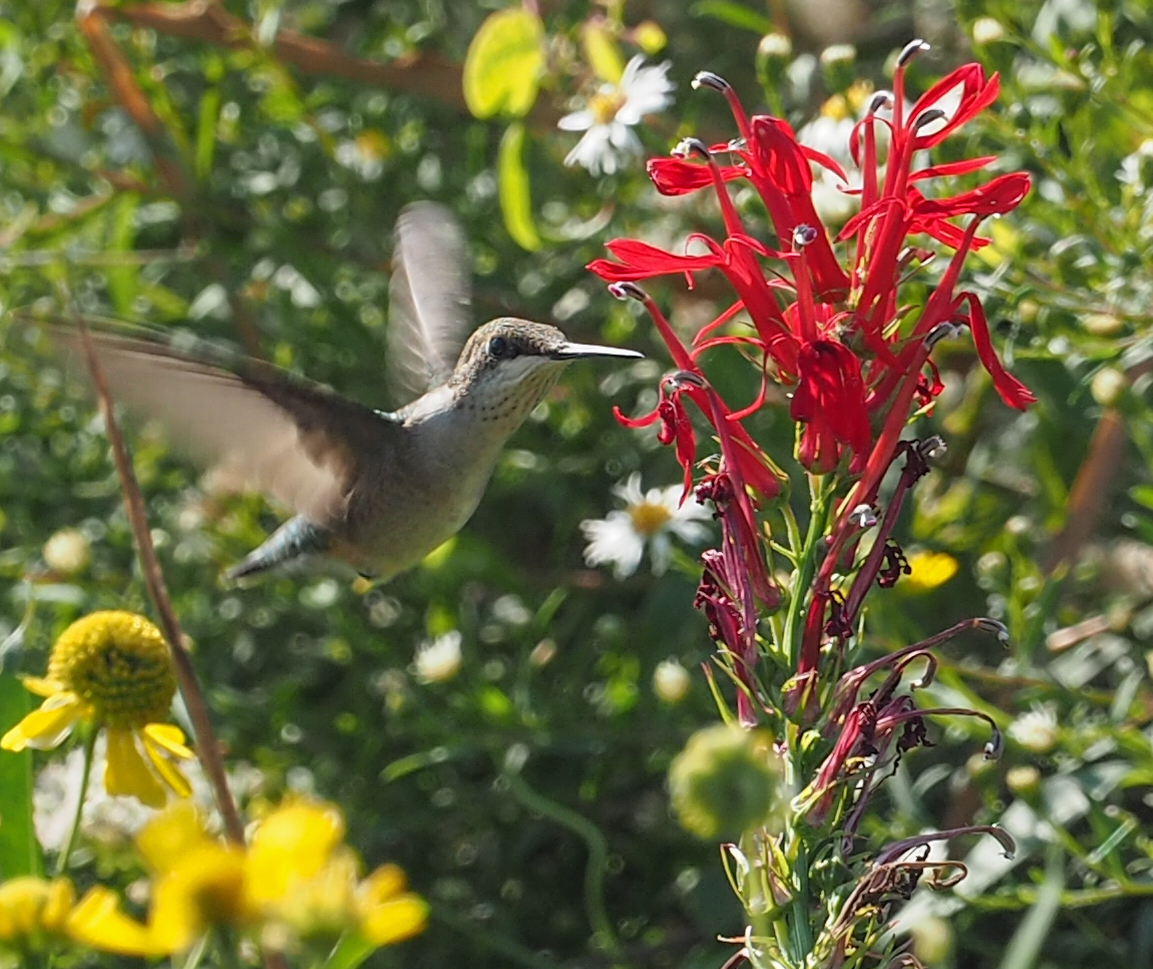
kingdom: Animalia
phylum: Chordata
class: Aves
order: Apodiformes
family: Trochilidae
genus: Archilochus
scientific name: Archilochus colubris
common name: Ruby-throated hummingbird
